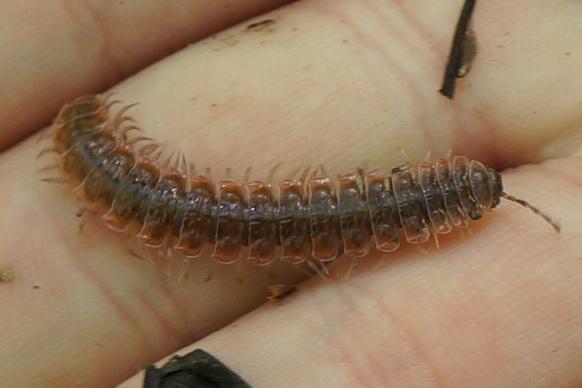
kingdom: Animalia
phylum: Arthropoda
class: Diplopoda
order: Polydesmida
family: Polydesmidae
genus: Pseudopolydesmus
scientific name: Pseudopolydesmus serratus
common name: Common pink flat-back millipede
